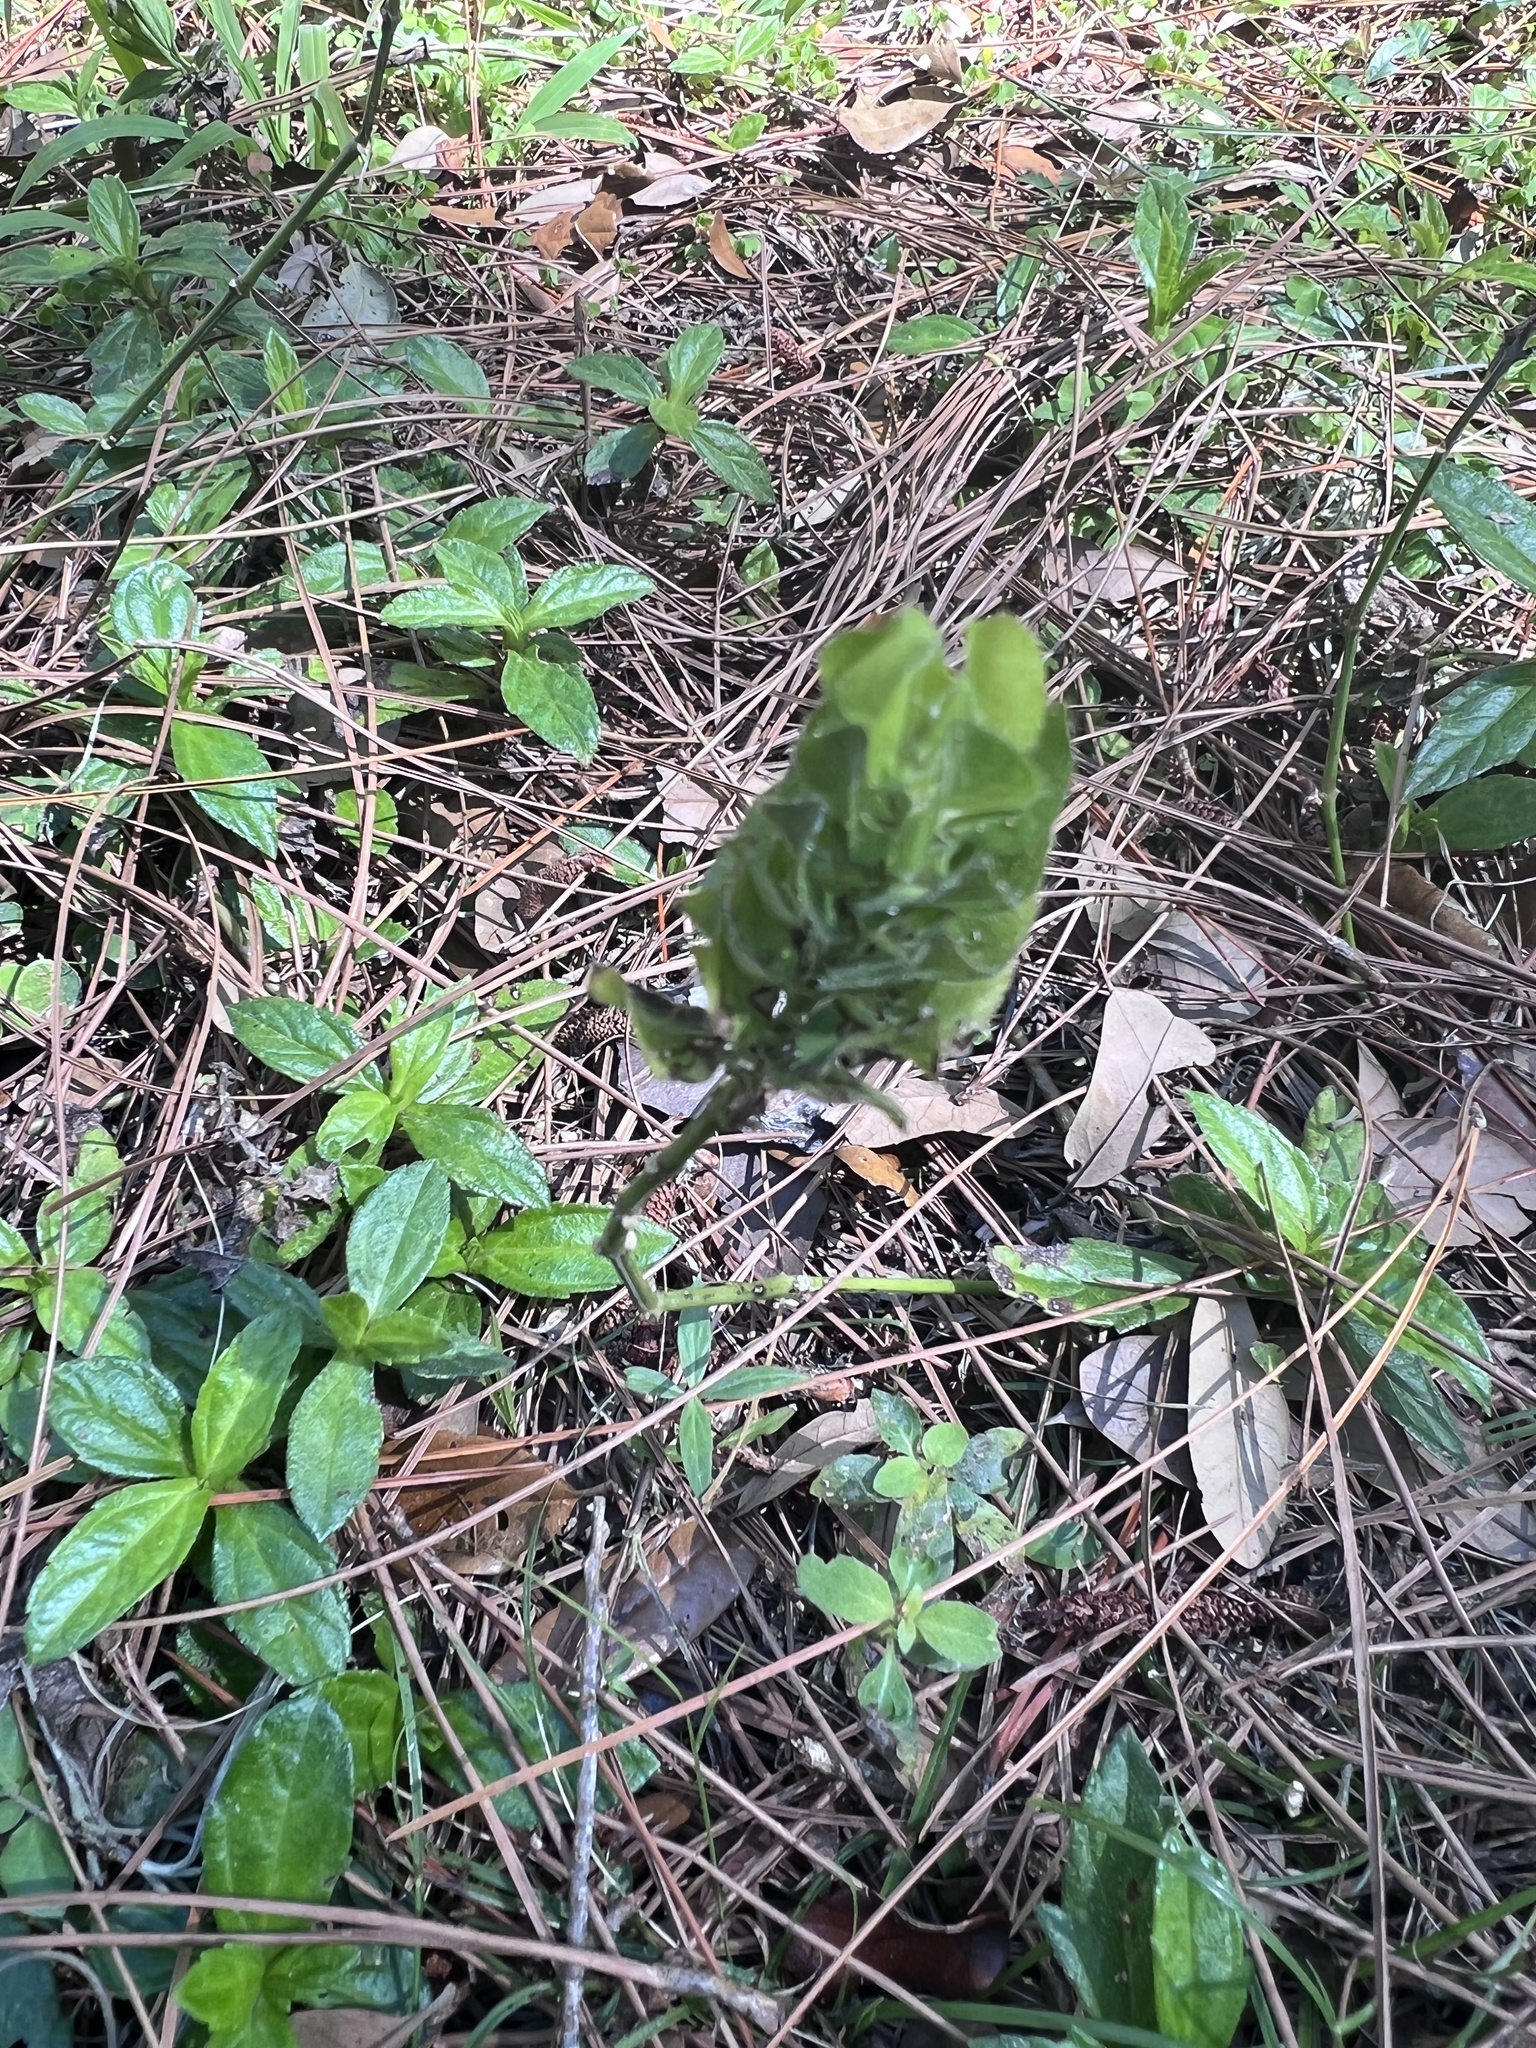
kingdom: Plantae
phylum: Tracheophyta
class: Magnoliopsida
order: Lamiales
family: Acanthaceae
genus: Ruellia
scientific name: Ruellia blechum
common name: Browne's blechum
